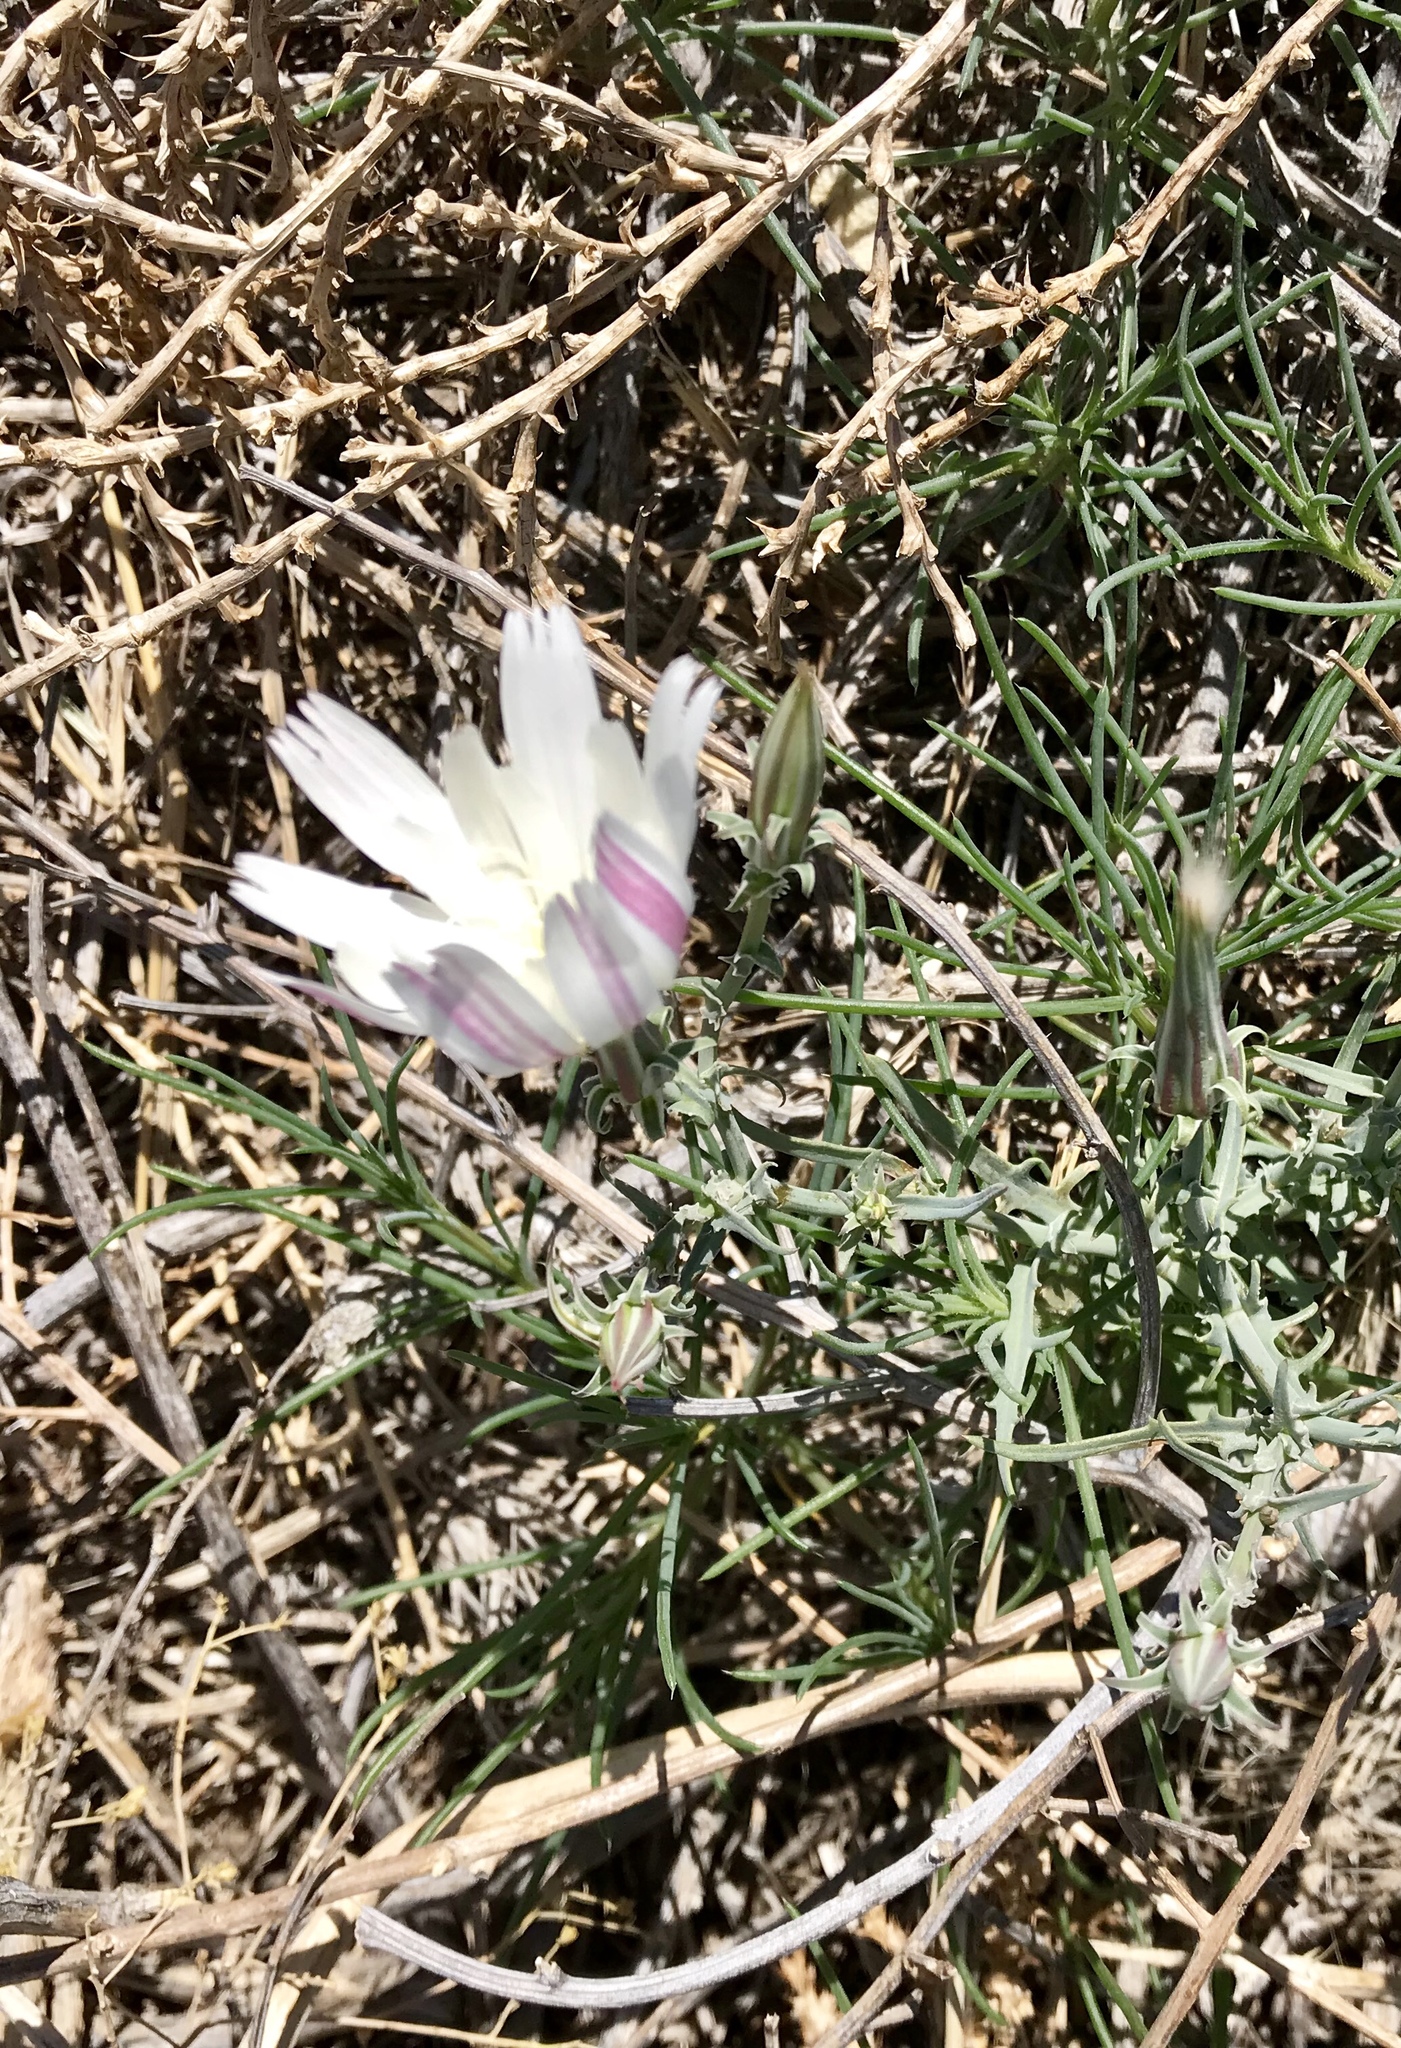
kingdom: Plantae
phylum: Tracheophyta
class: Magnoliopsida
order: Asterales
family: Asteraceae
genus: Rafinesquia
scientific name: Rafinesquia neomexicana
